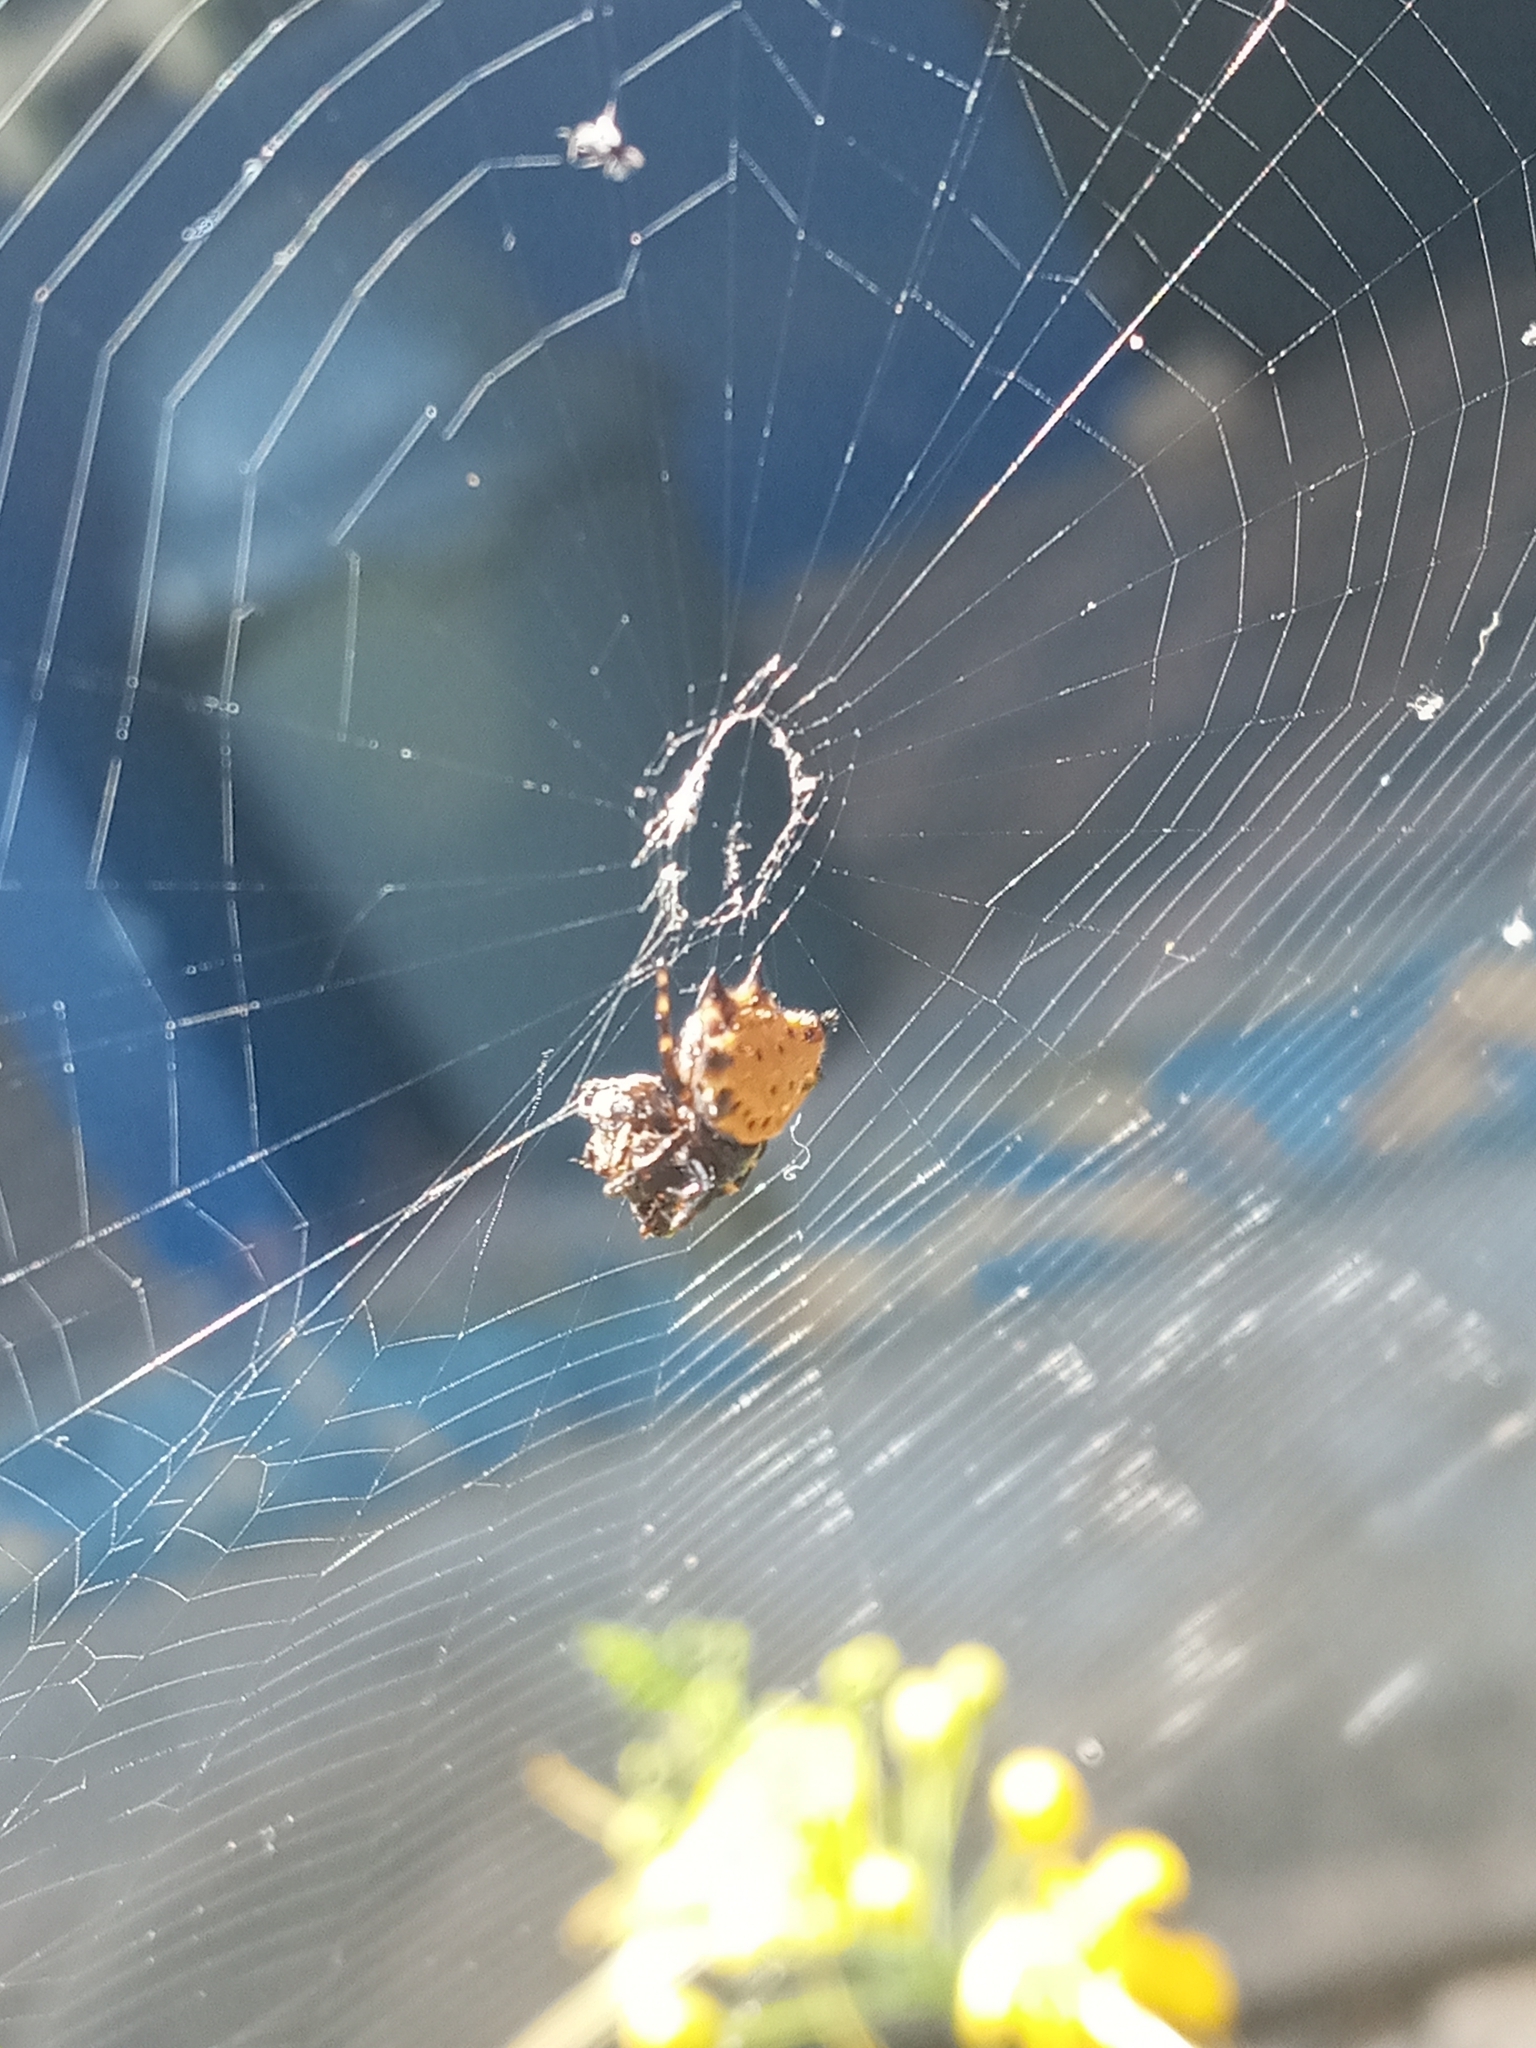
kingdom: Animalia
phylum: Arthropoda
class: Arachnida
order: Araneae
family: Araneidae
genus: Gasteracantha
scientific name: Gasteracantha cancriformis
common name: Orb weavers
